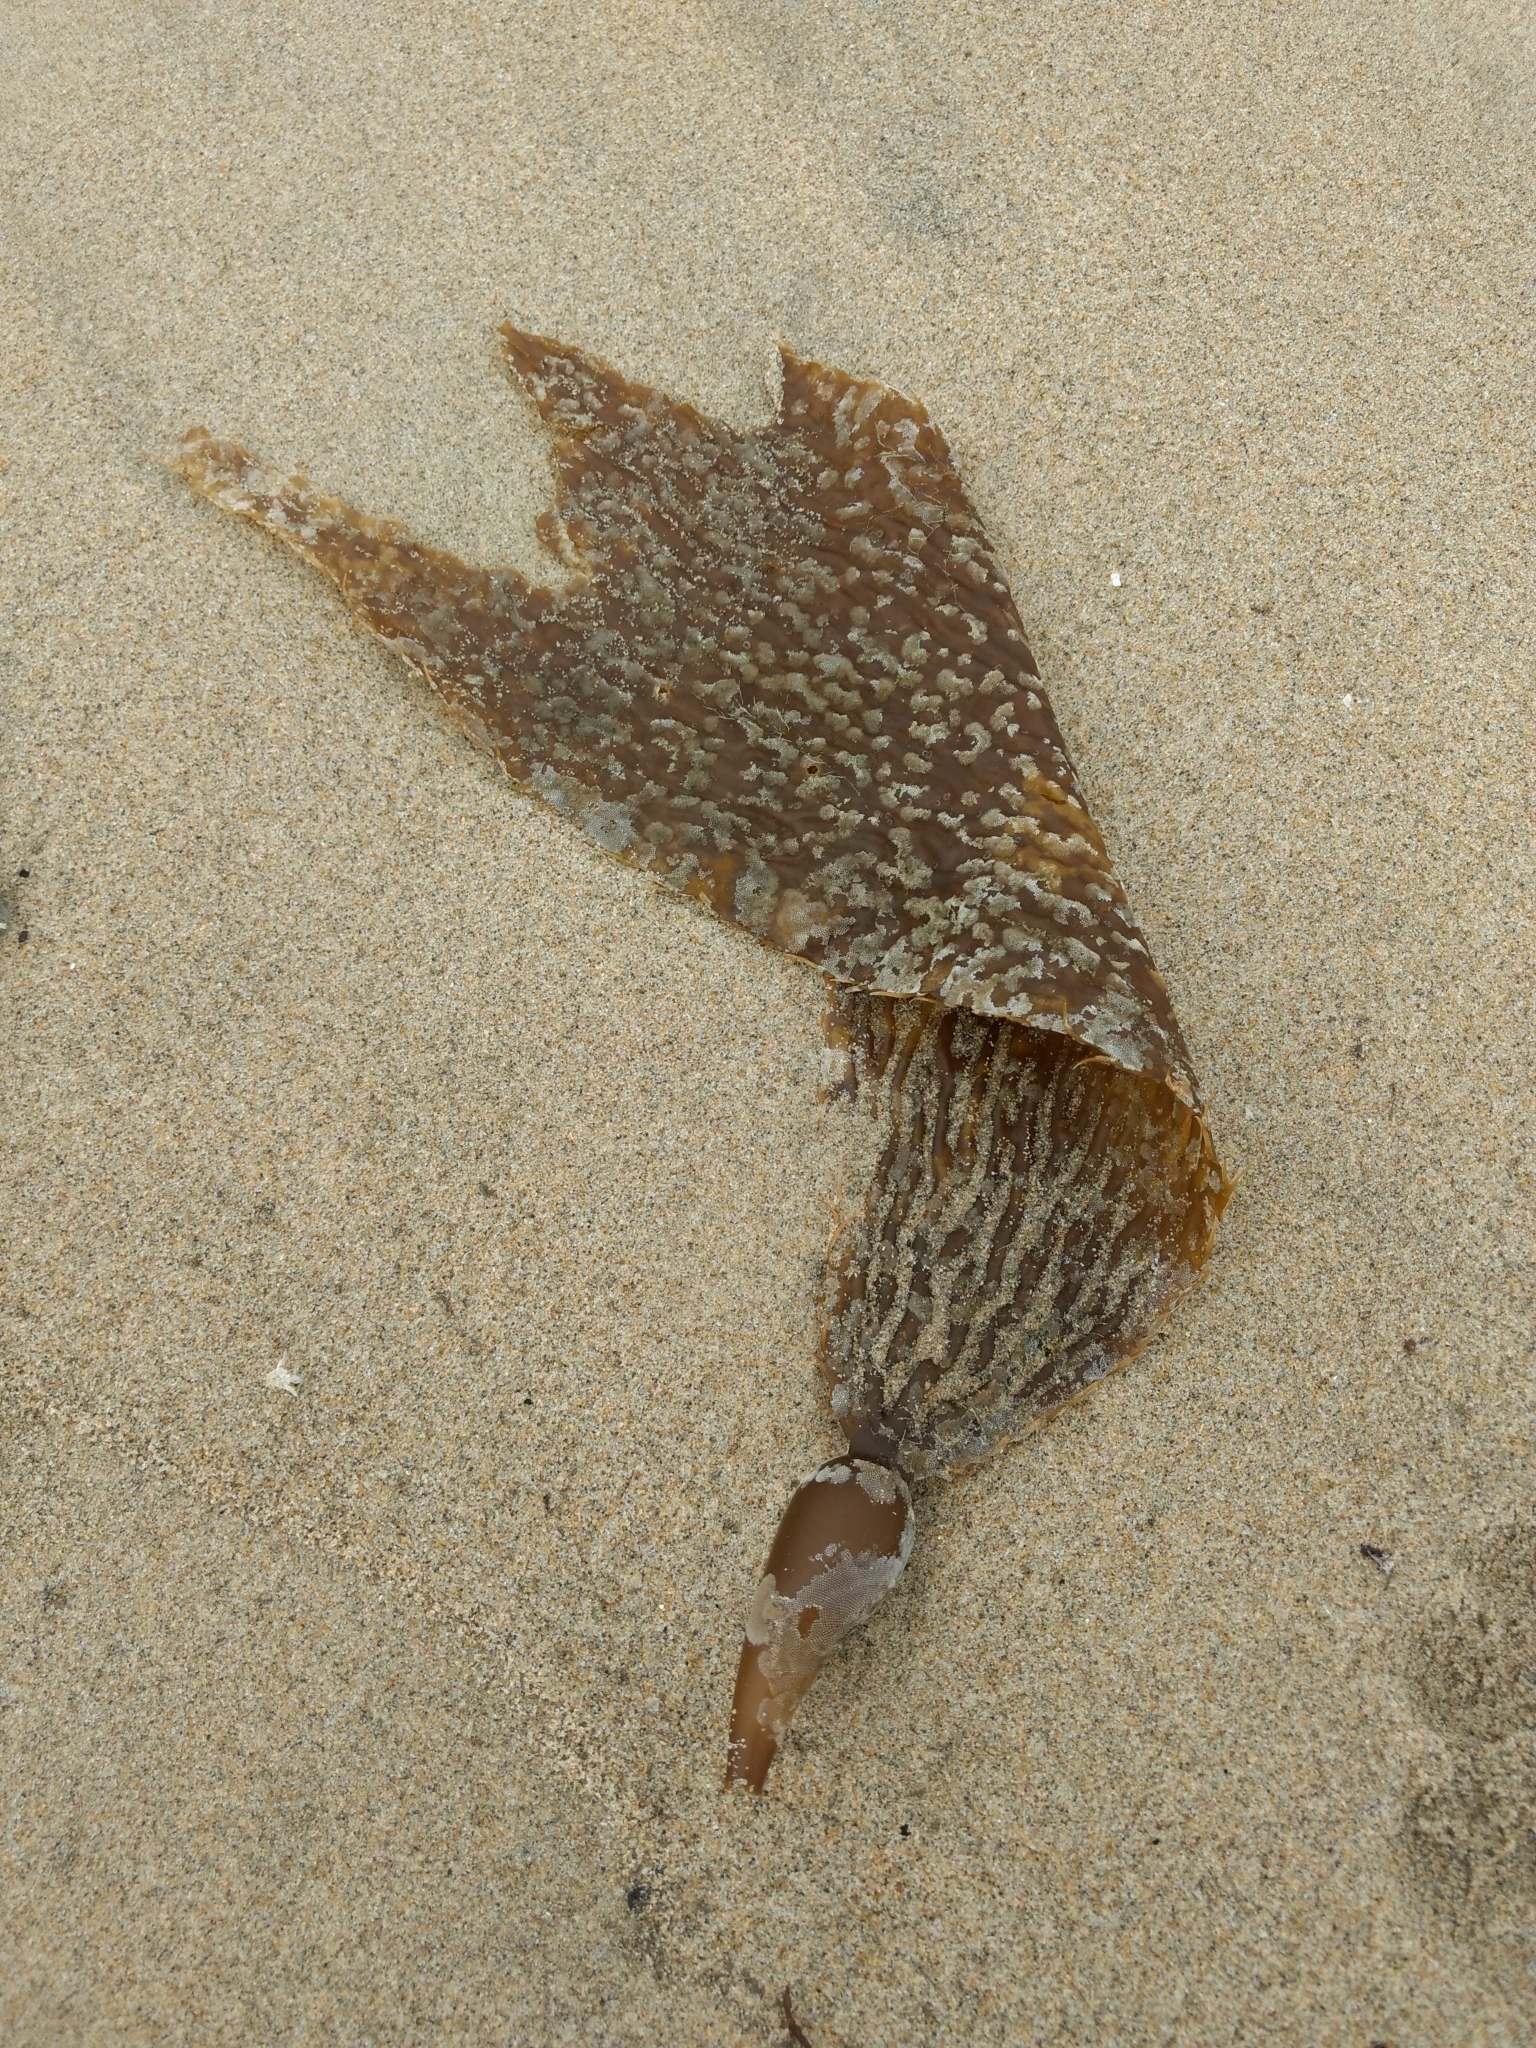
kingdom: Chromista
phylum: Ochrophyta
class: Phaeophyceae
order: Laminariales
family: Laminariaceae
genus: Macrocystis
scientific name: Macrocystis pyrifera
